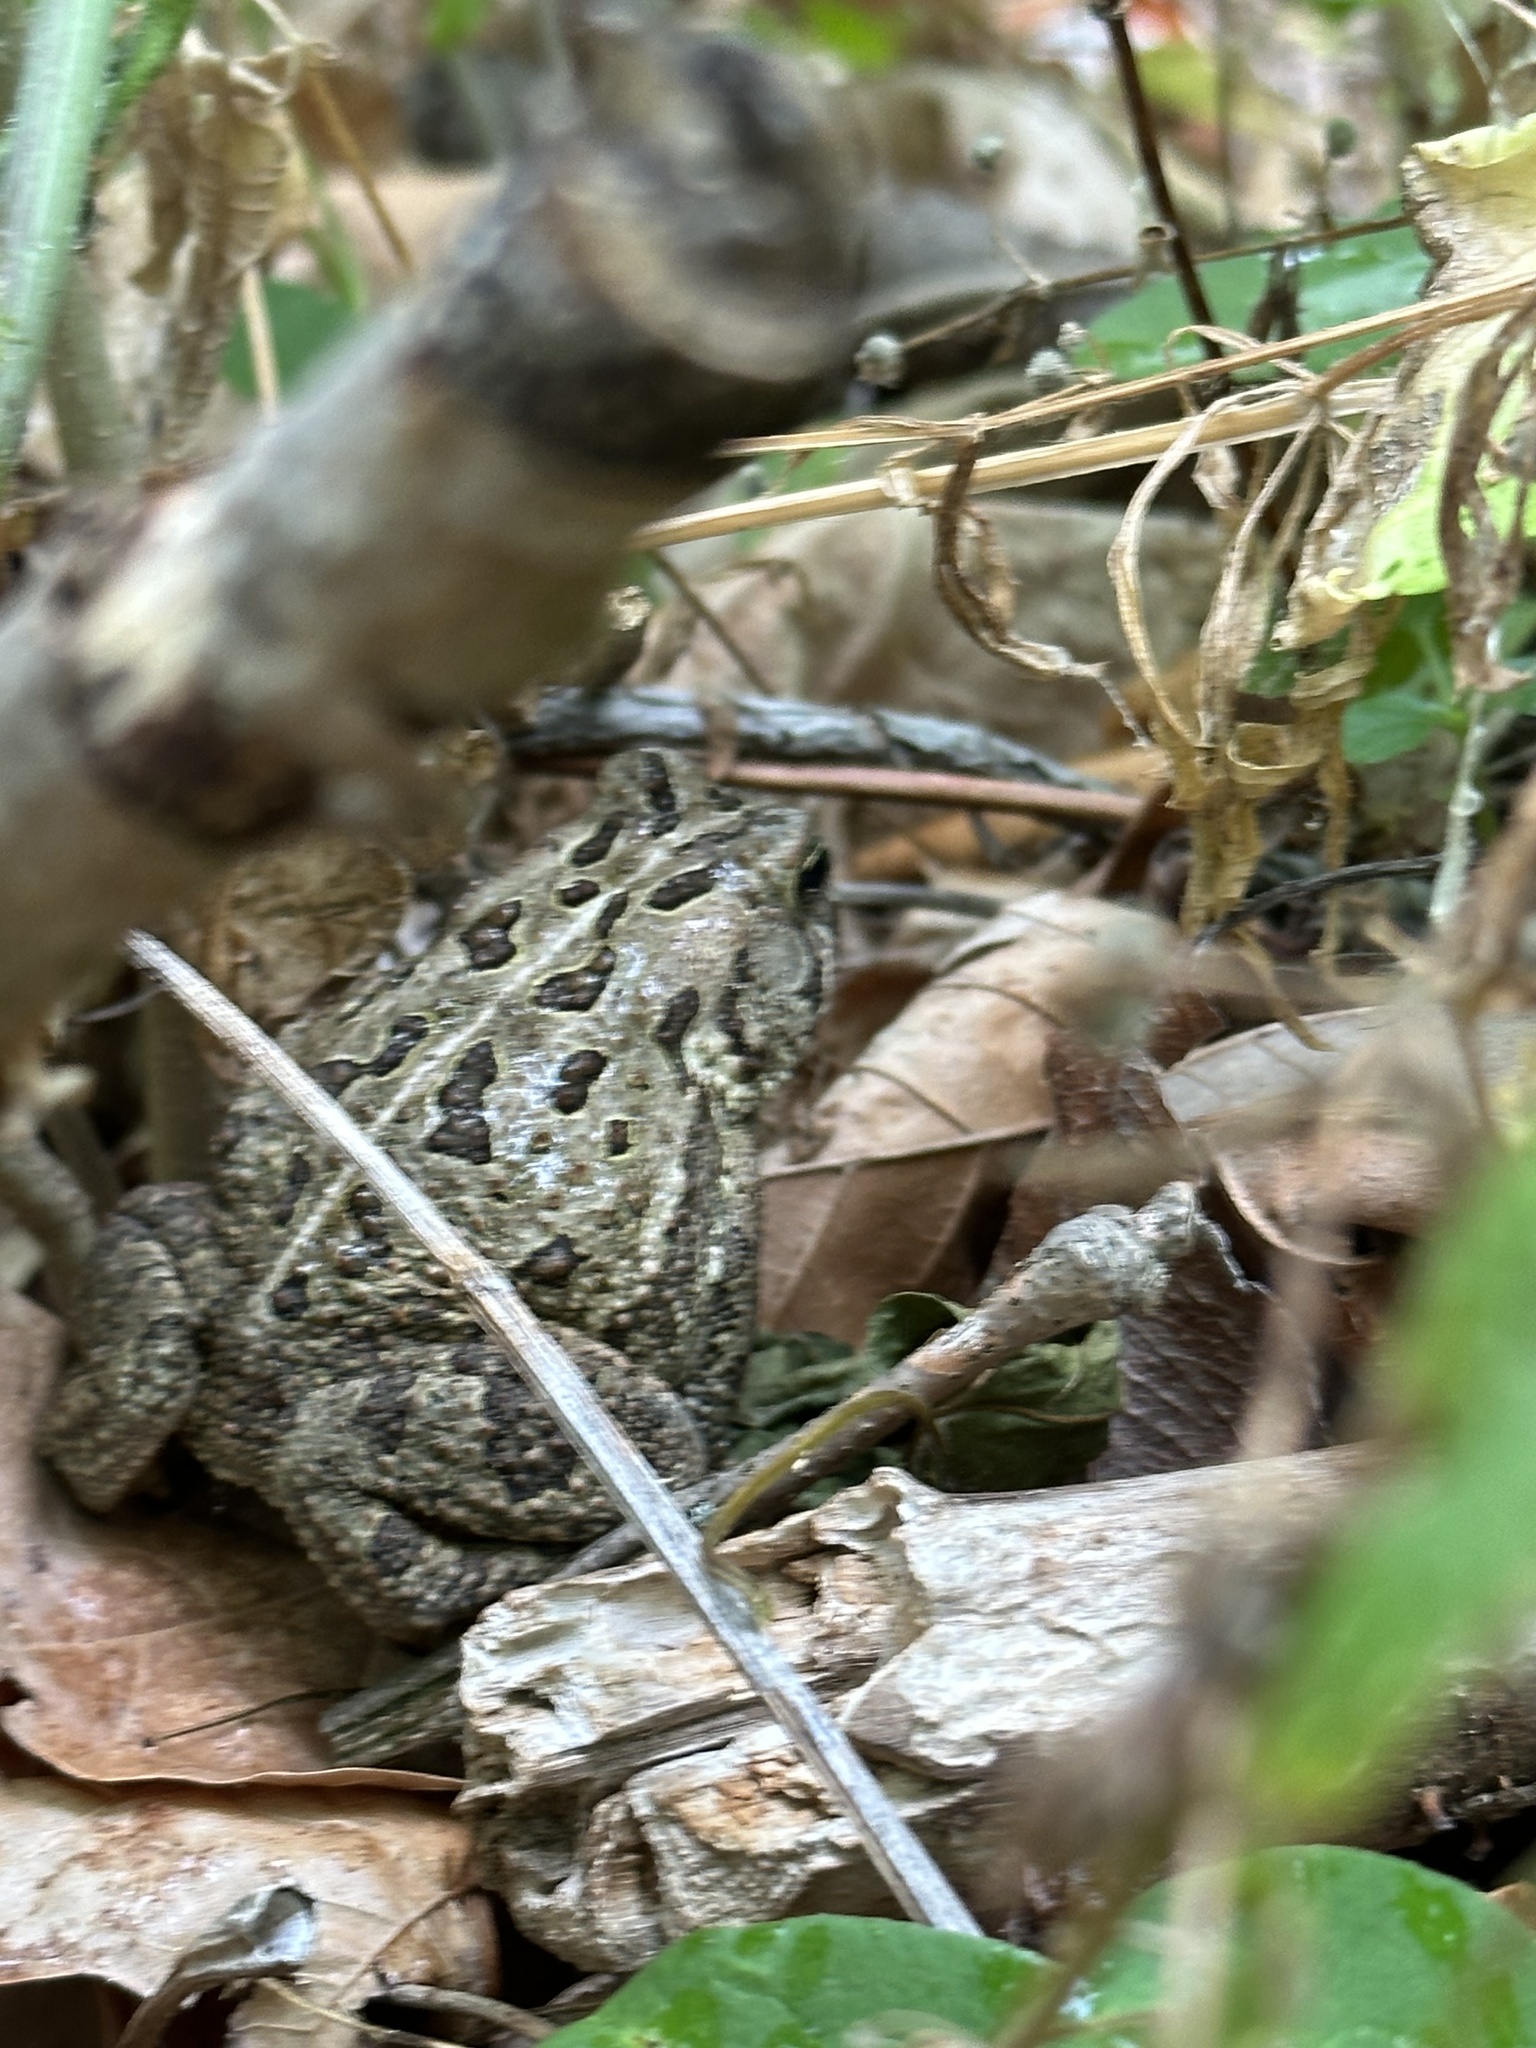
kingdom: Animalia
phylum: Chordata
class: Amphibia
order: Anura
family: Bufonidae
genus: Anaxyrus
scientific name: Anaxyrus fowleri
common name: Fowler's toad
